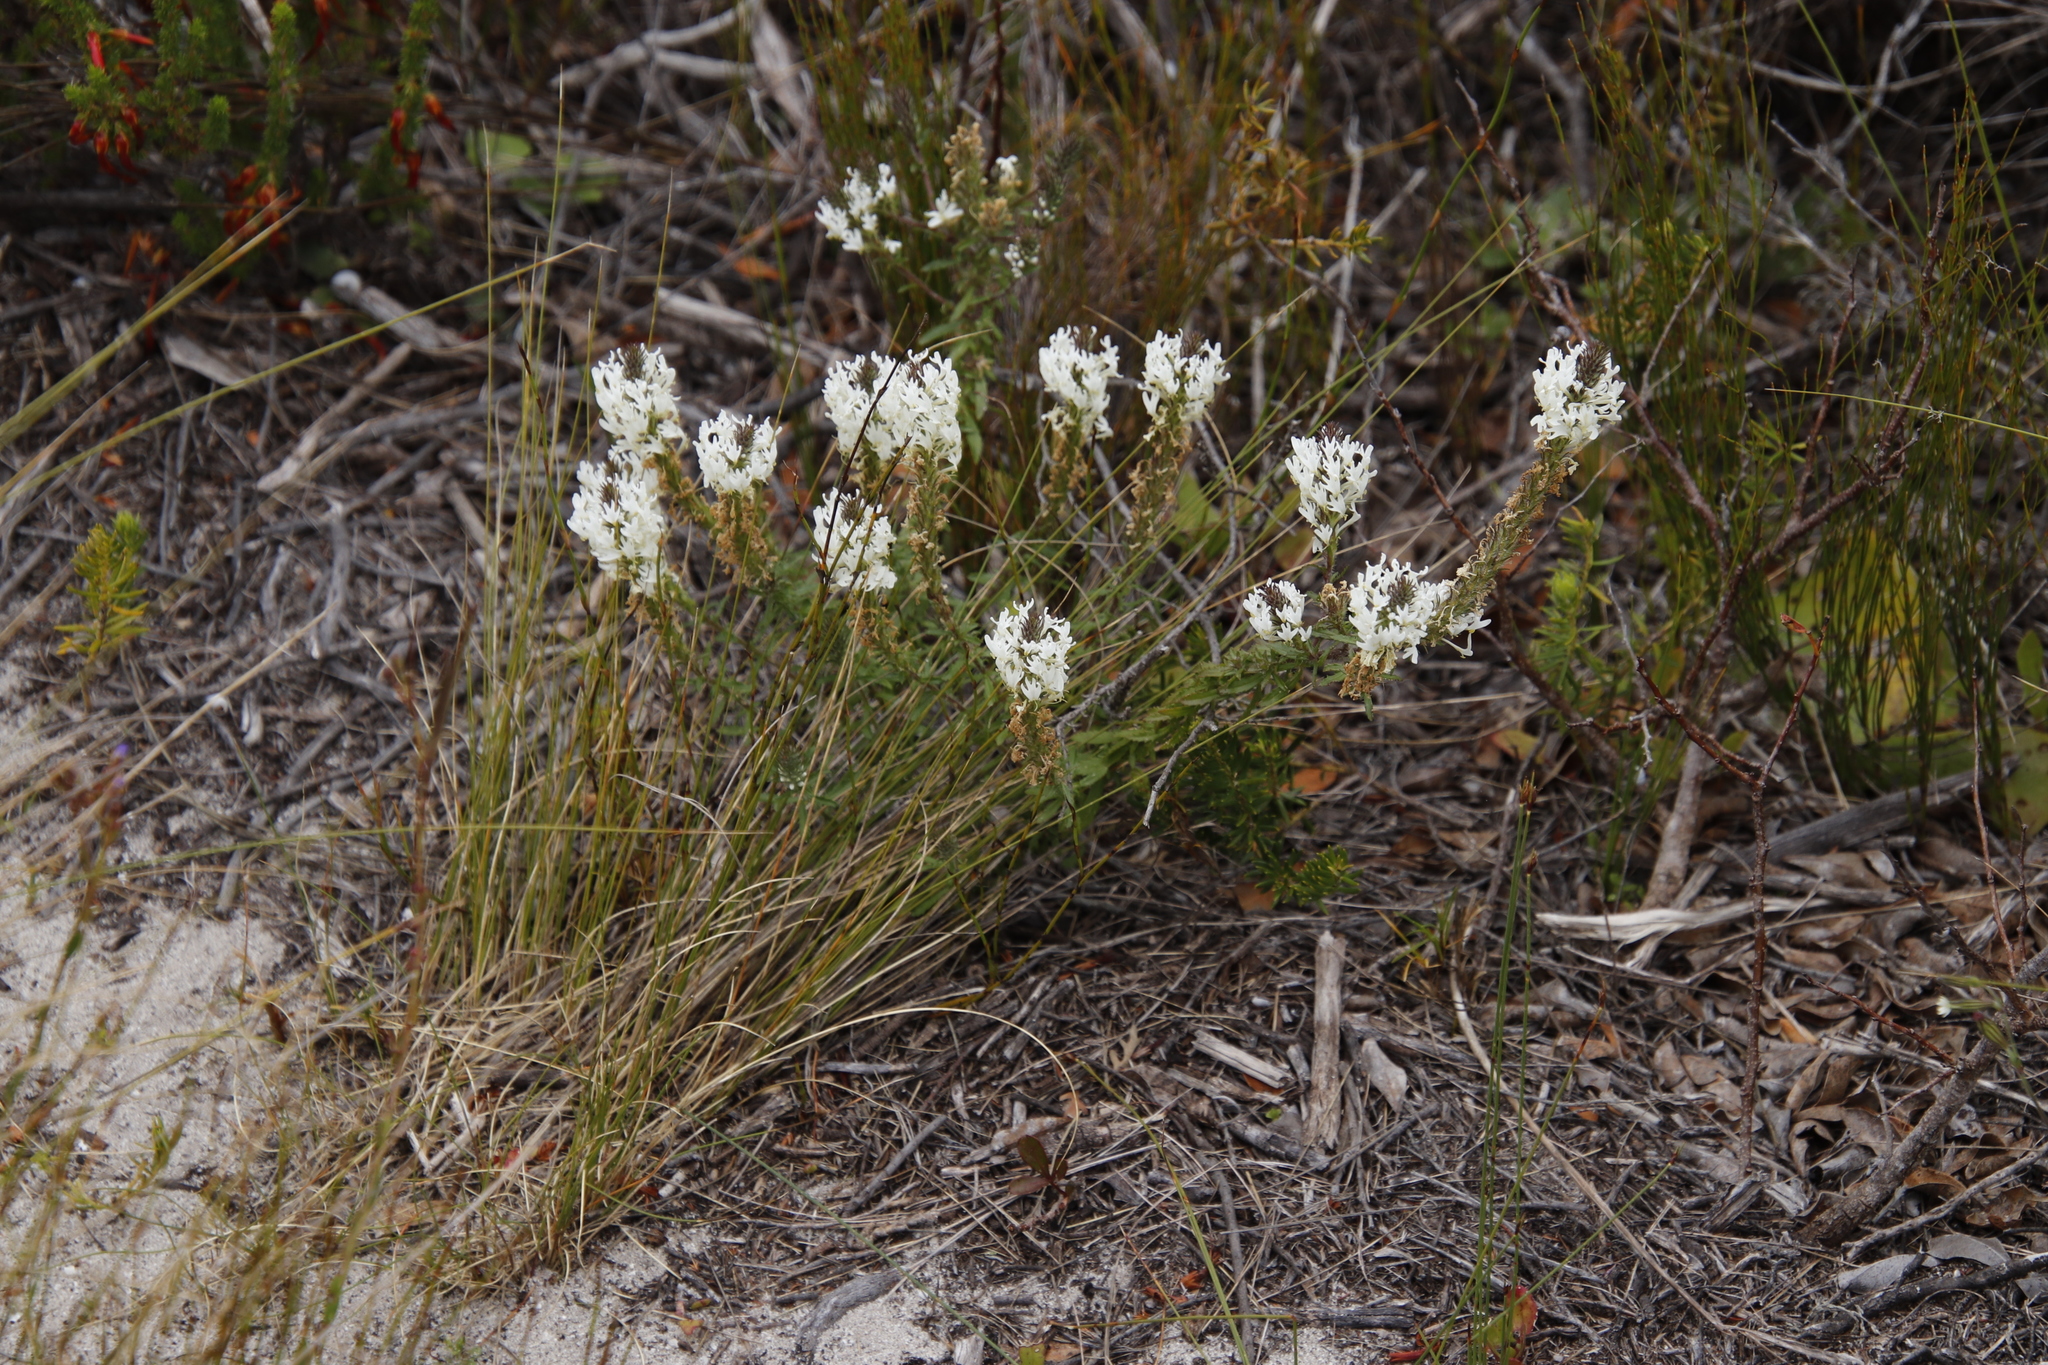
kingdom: Plantae
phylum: Tracheophyta
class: Magnoliopsida
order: Lamiales
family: Scrophulariaceae
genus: Dischisma
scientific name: Dischisma ciliatum
